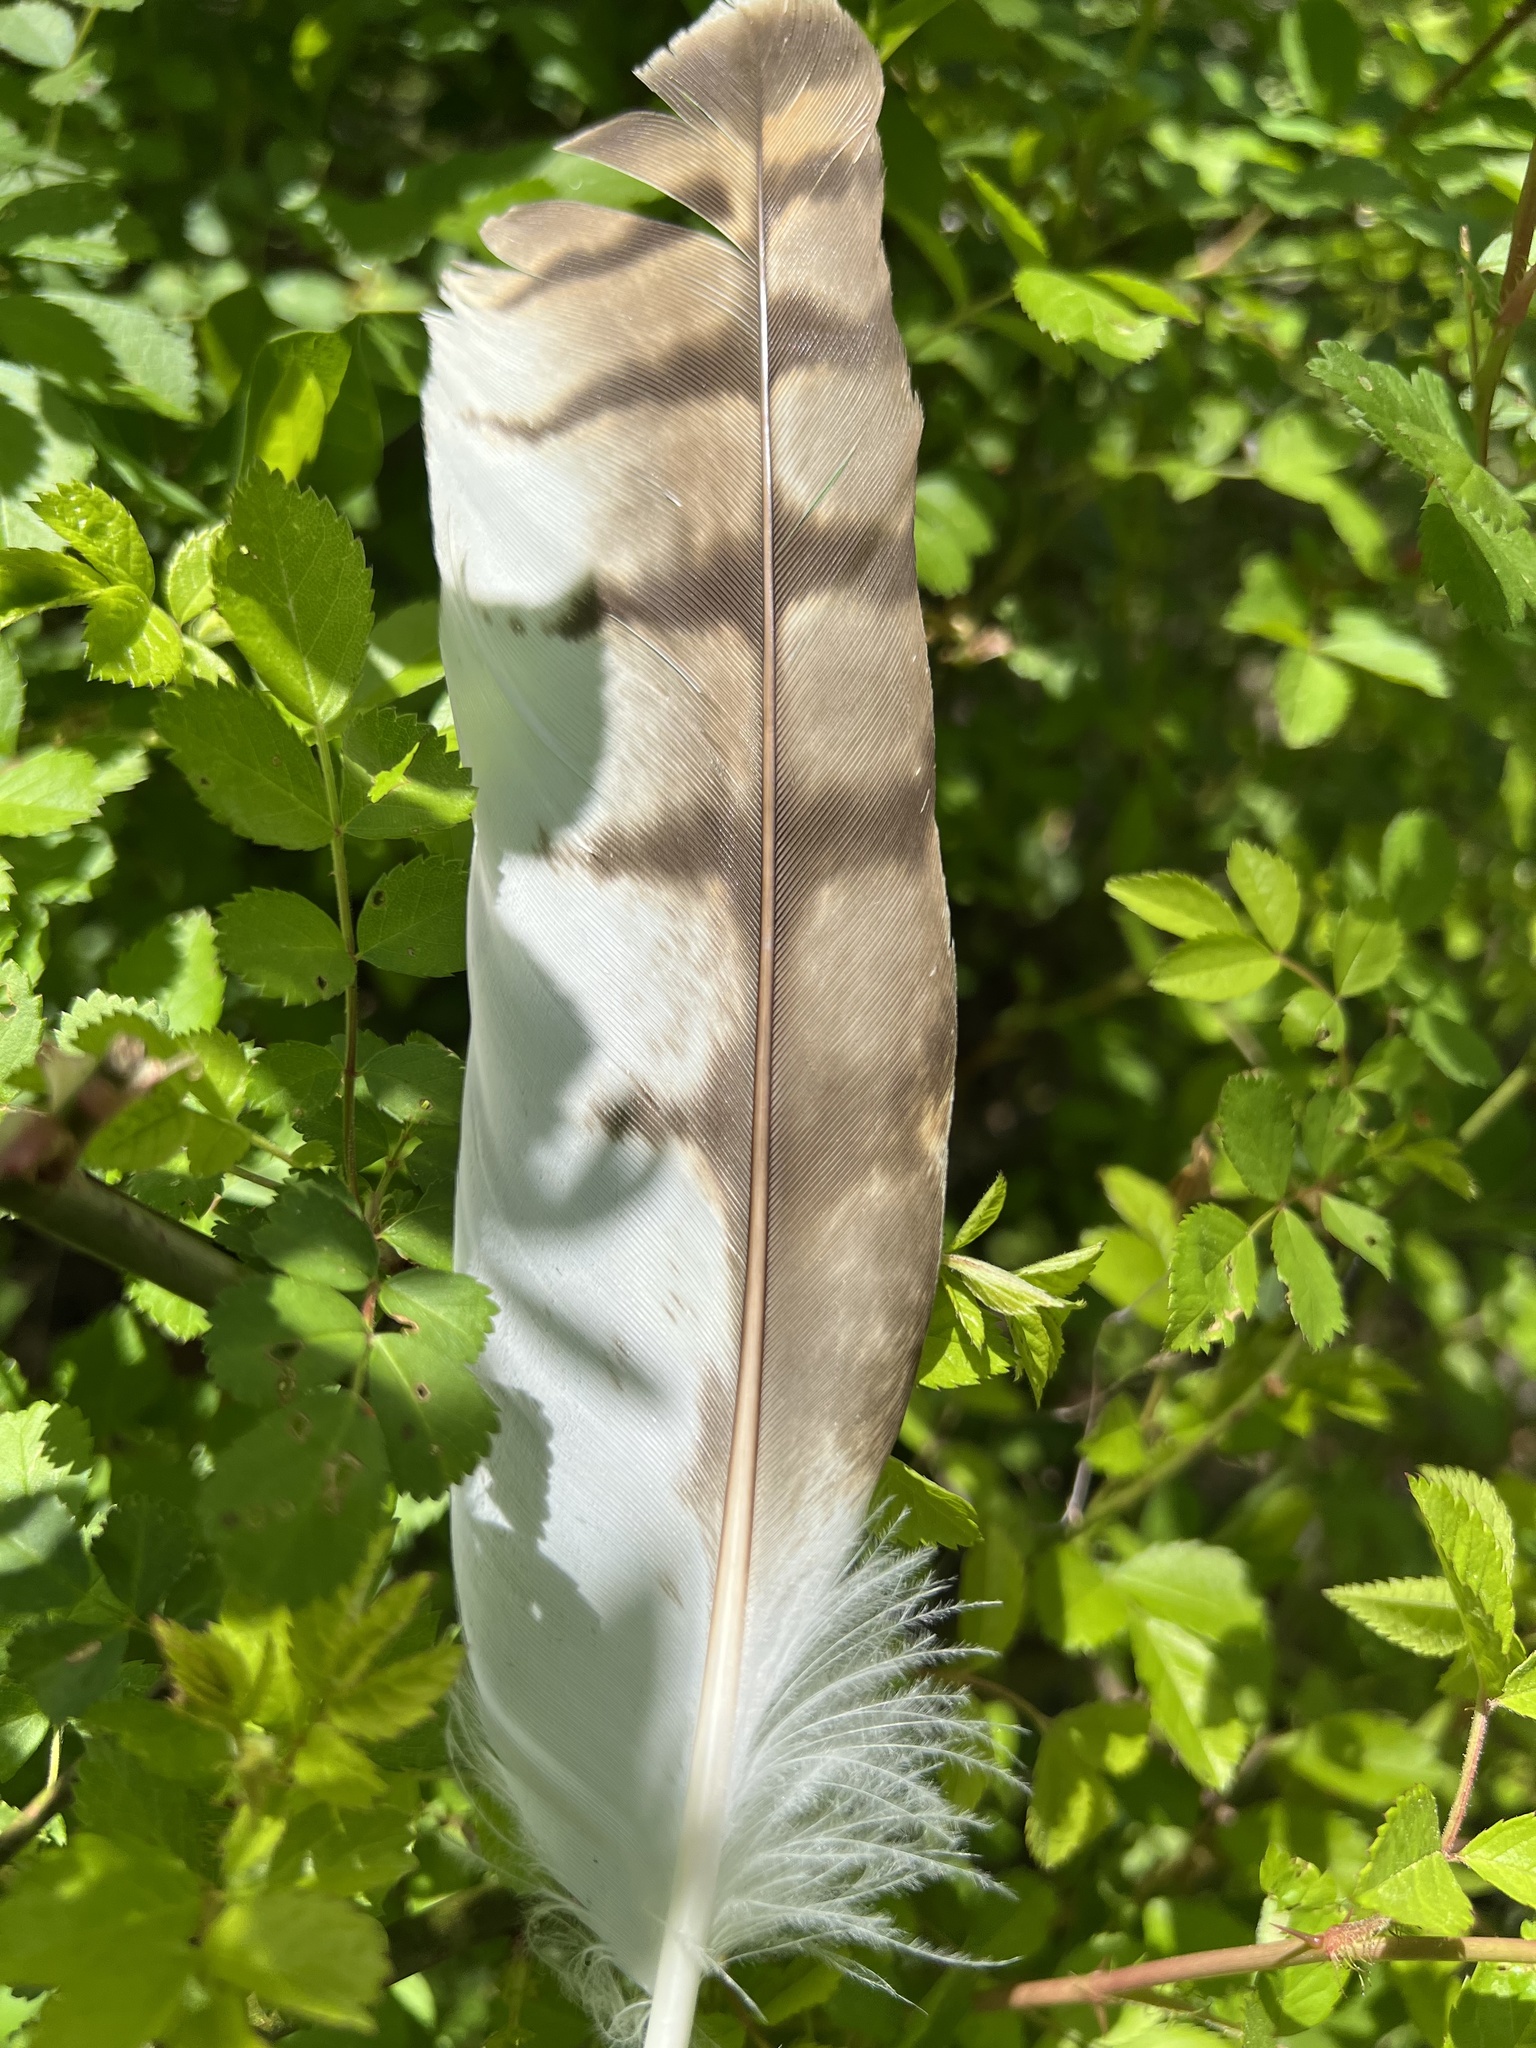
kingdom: Animalia
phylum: Chordata
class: Aves
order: Accipitriformes
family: Accipitridae
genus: Buteo
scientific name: Buteo jamaicensis
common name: Red-tailed hawk
